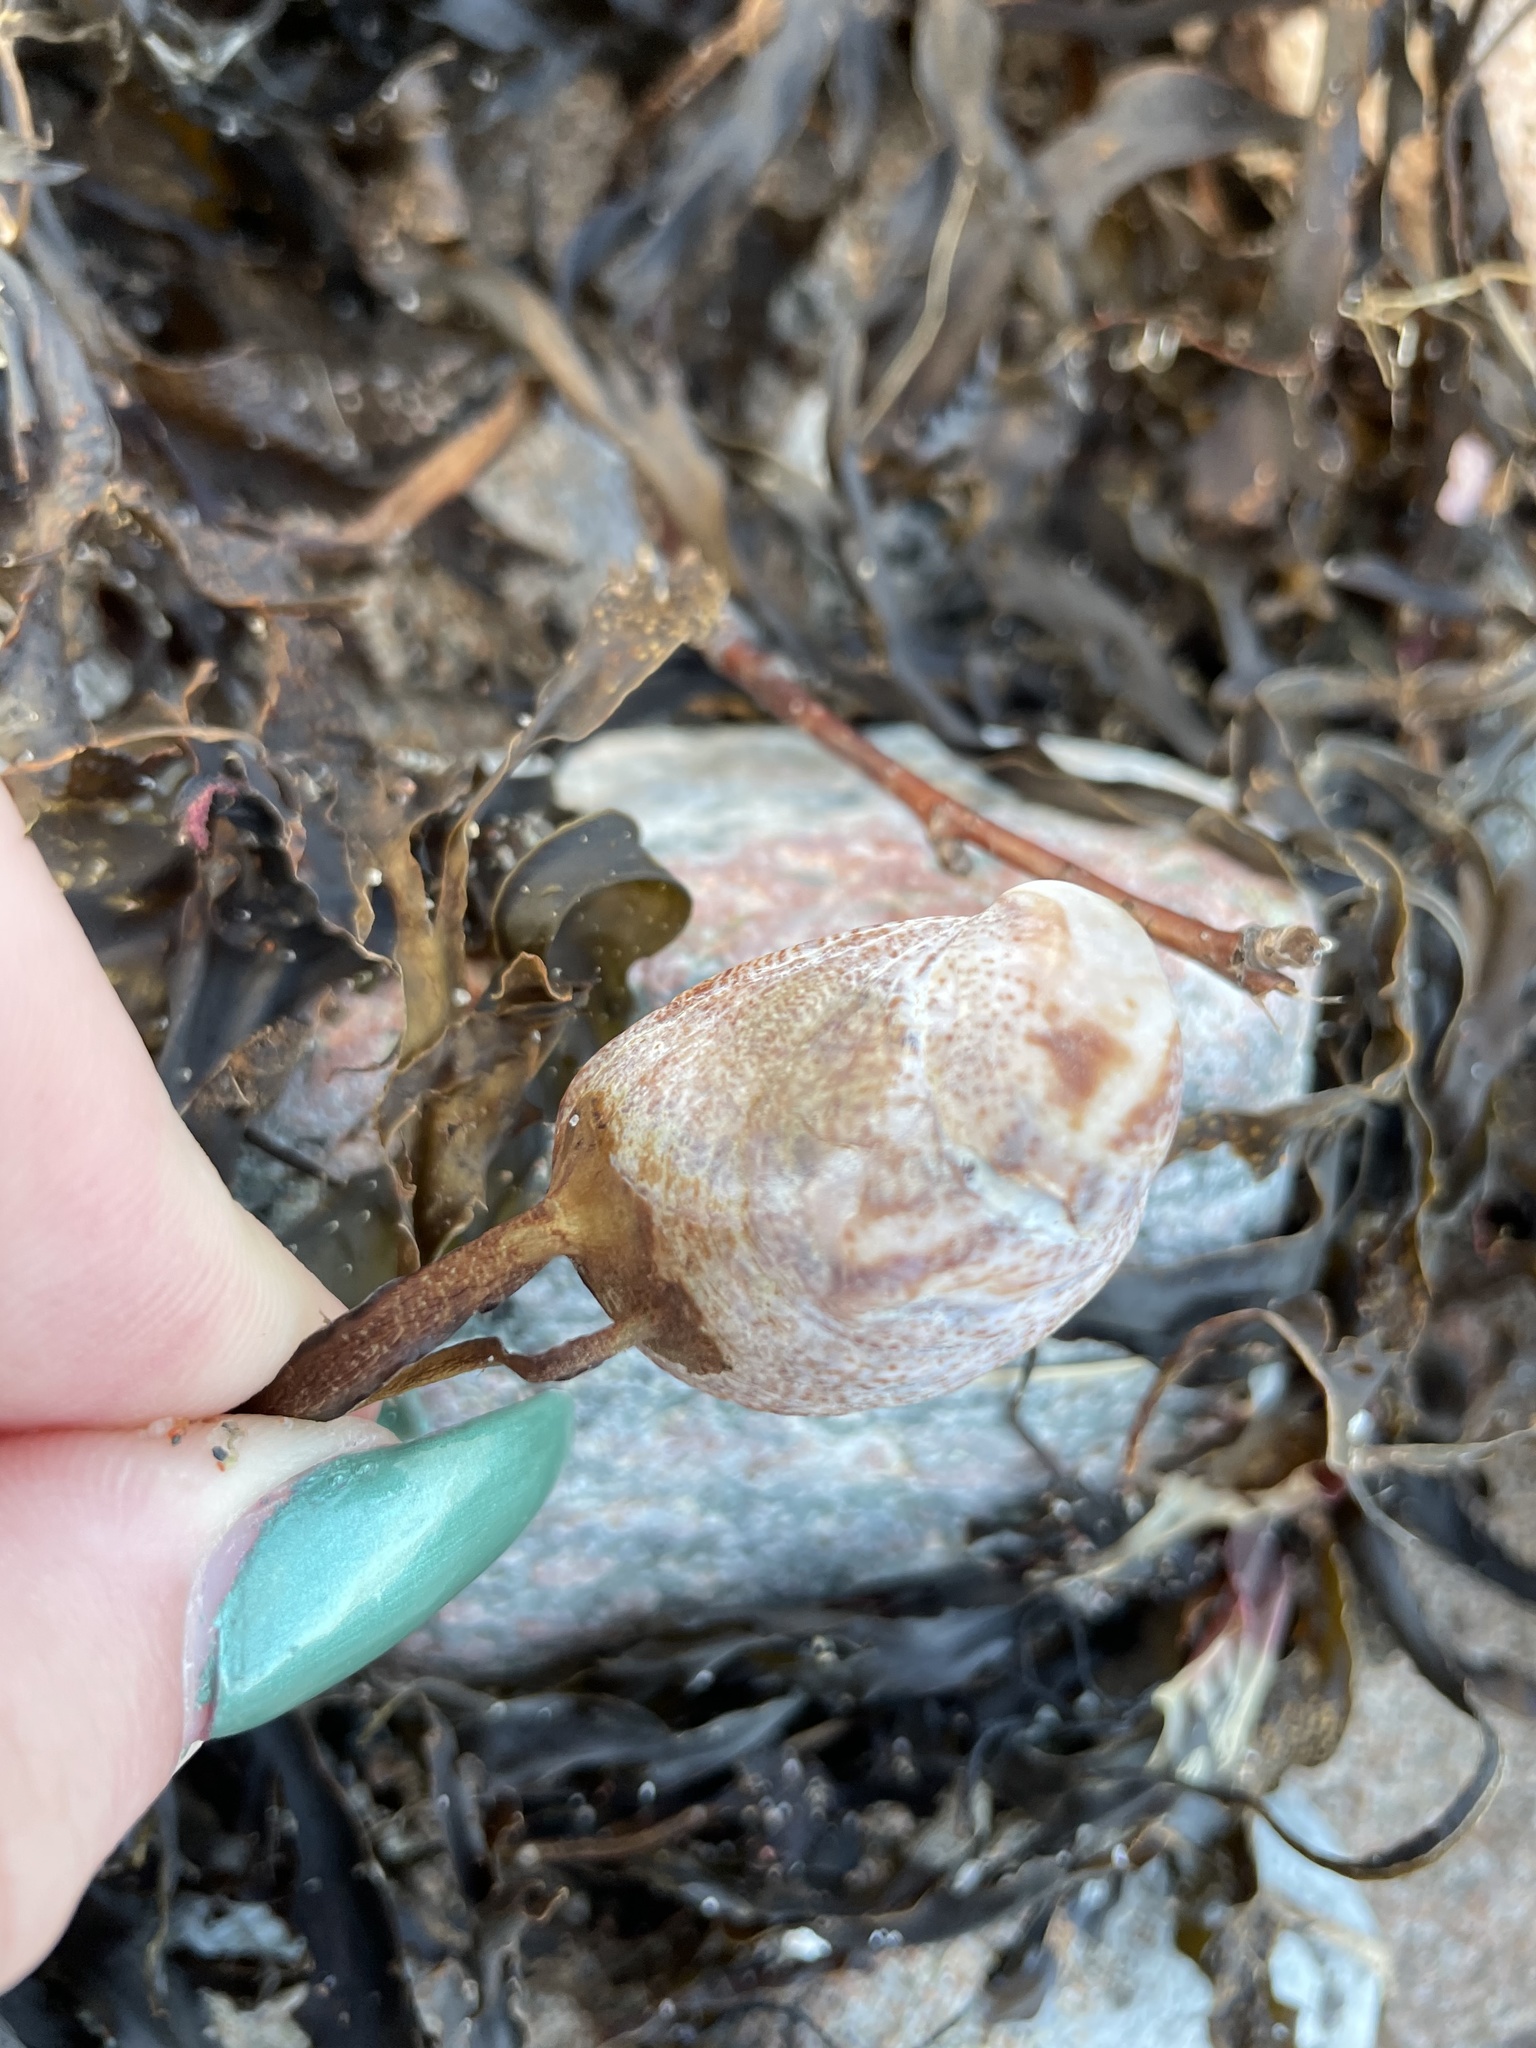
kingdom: Animalia
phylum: Mollusca
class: Gastropoda
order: Littorinimorpha
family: Calyptraeidae
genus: Crepidula
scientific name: Crepidula fornicata
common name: Slipper limpet
